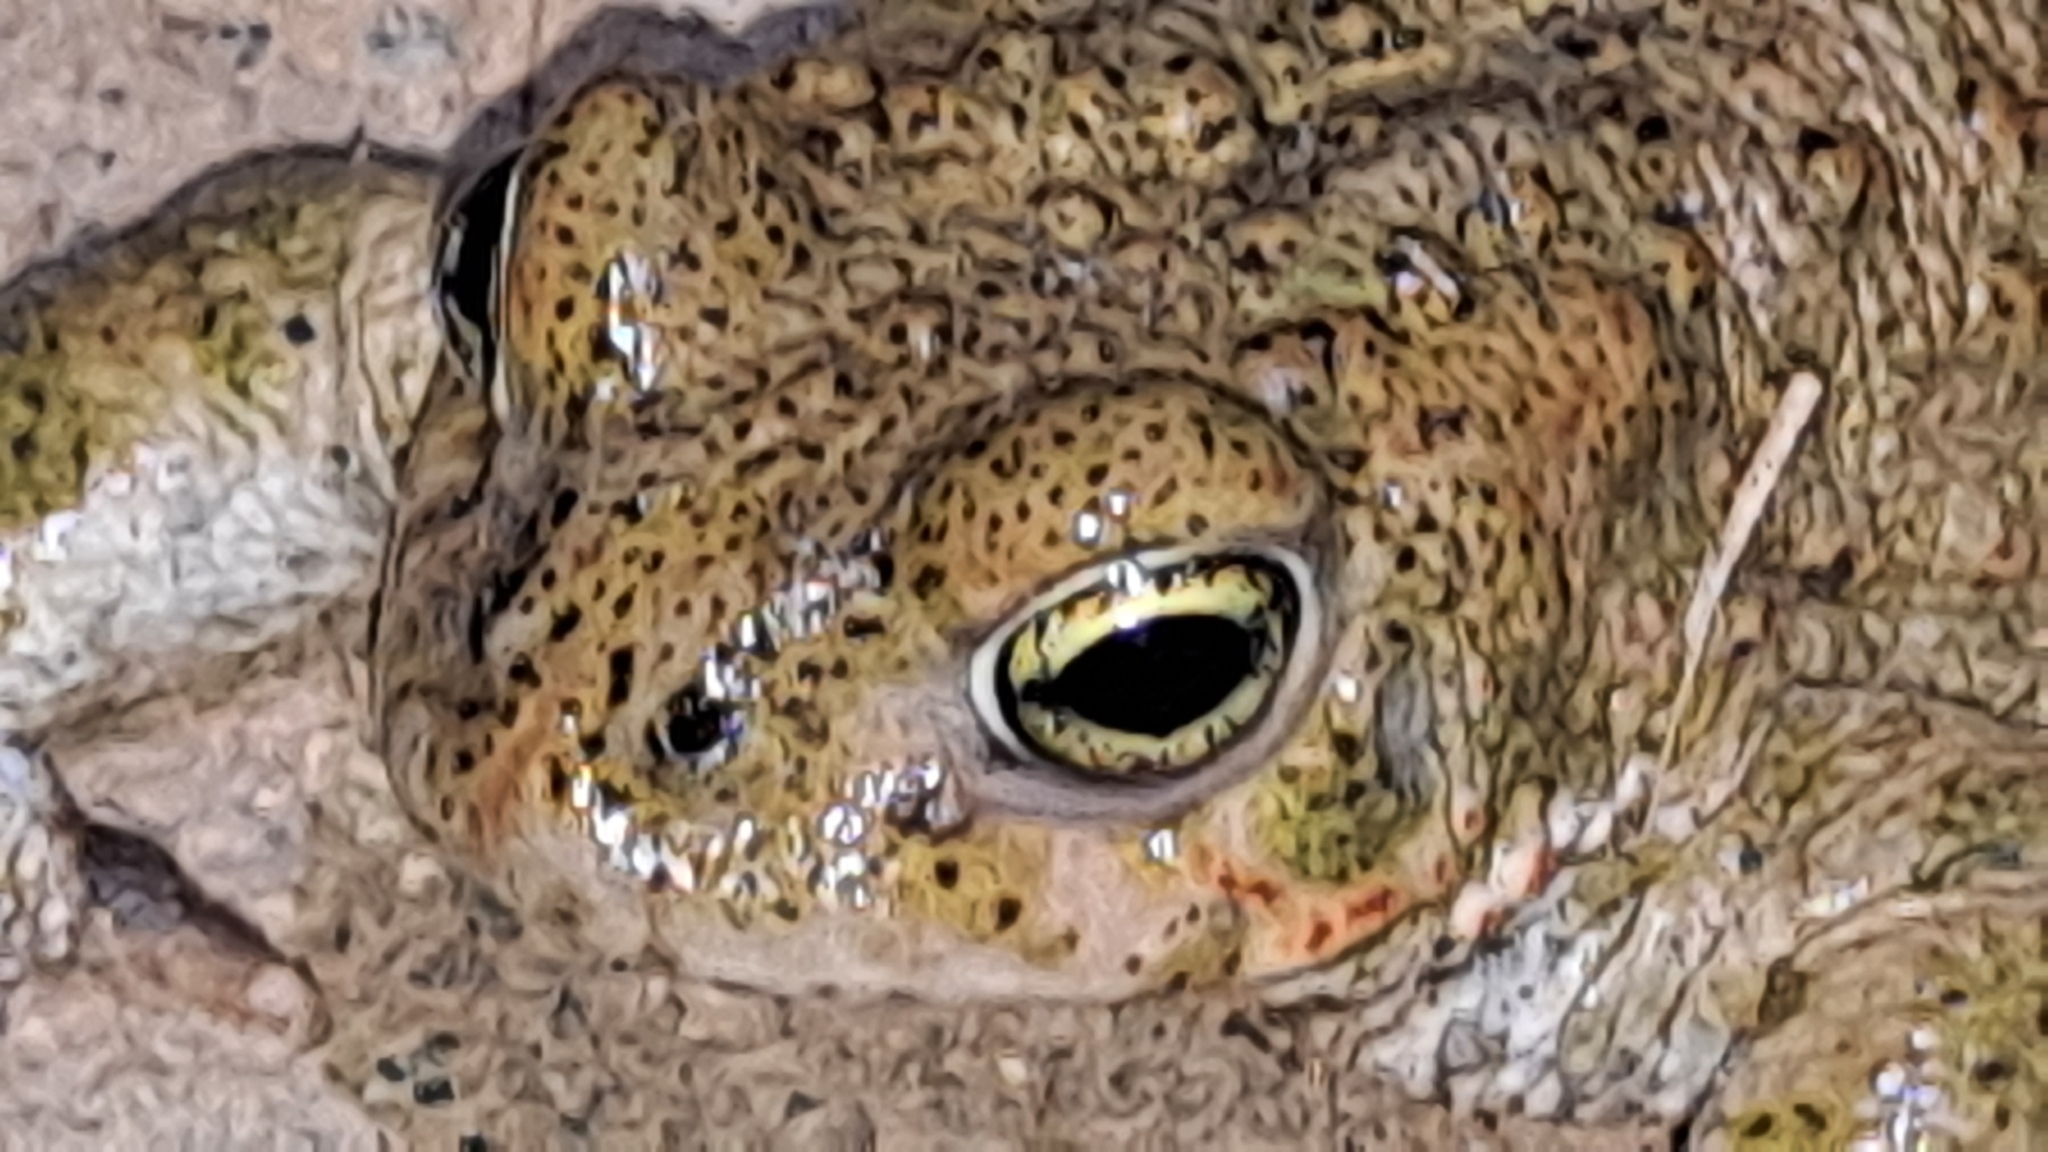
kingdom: Animalia
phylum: Chordata
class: Amphibia
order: Anura
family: Bufonidae
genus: Epidalea
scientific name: Epidalea calamita
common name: Natterjack toad
